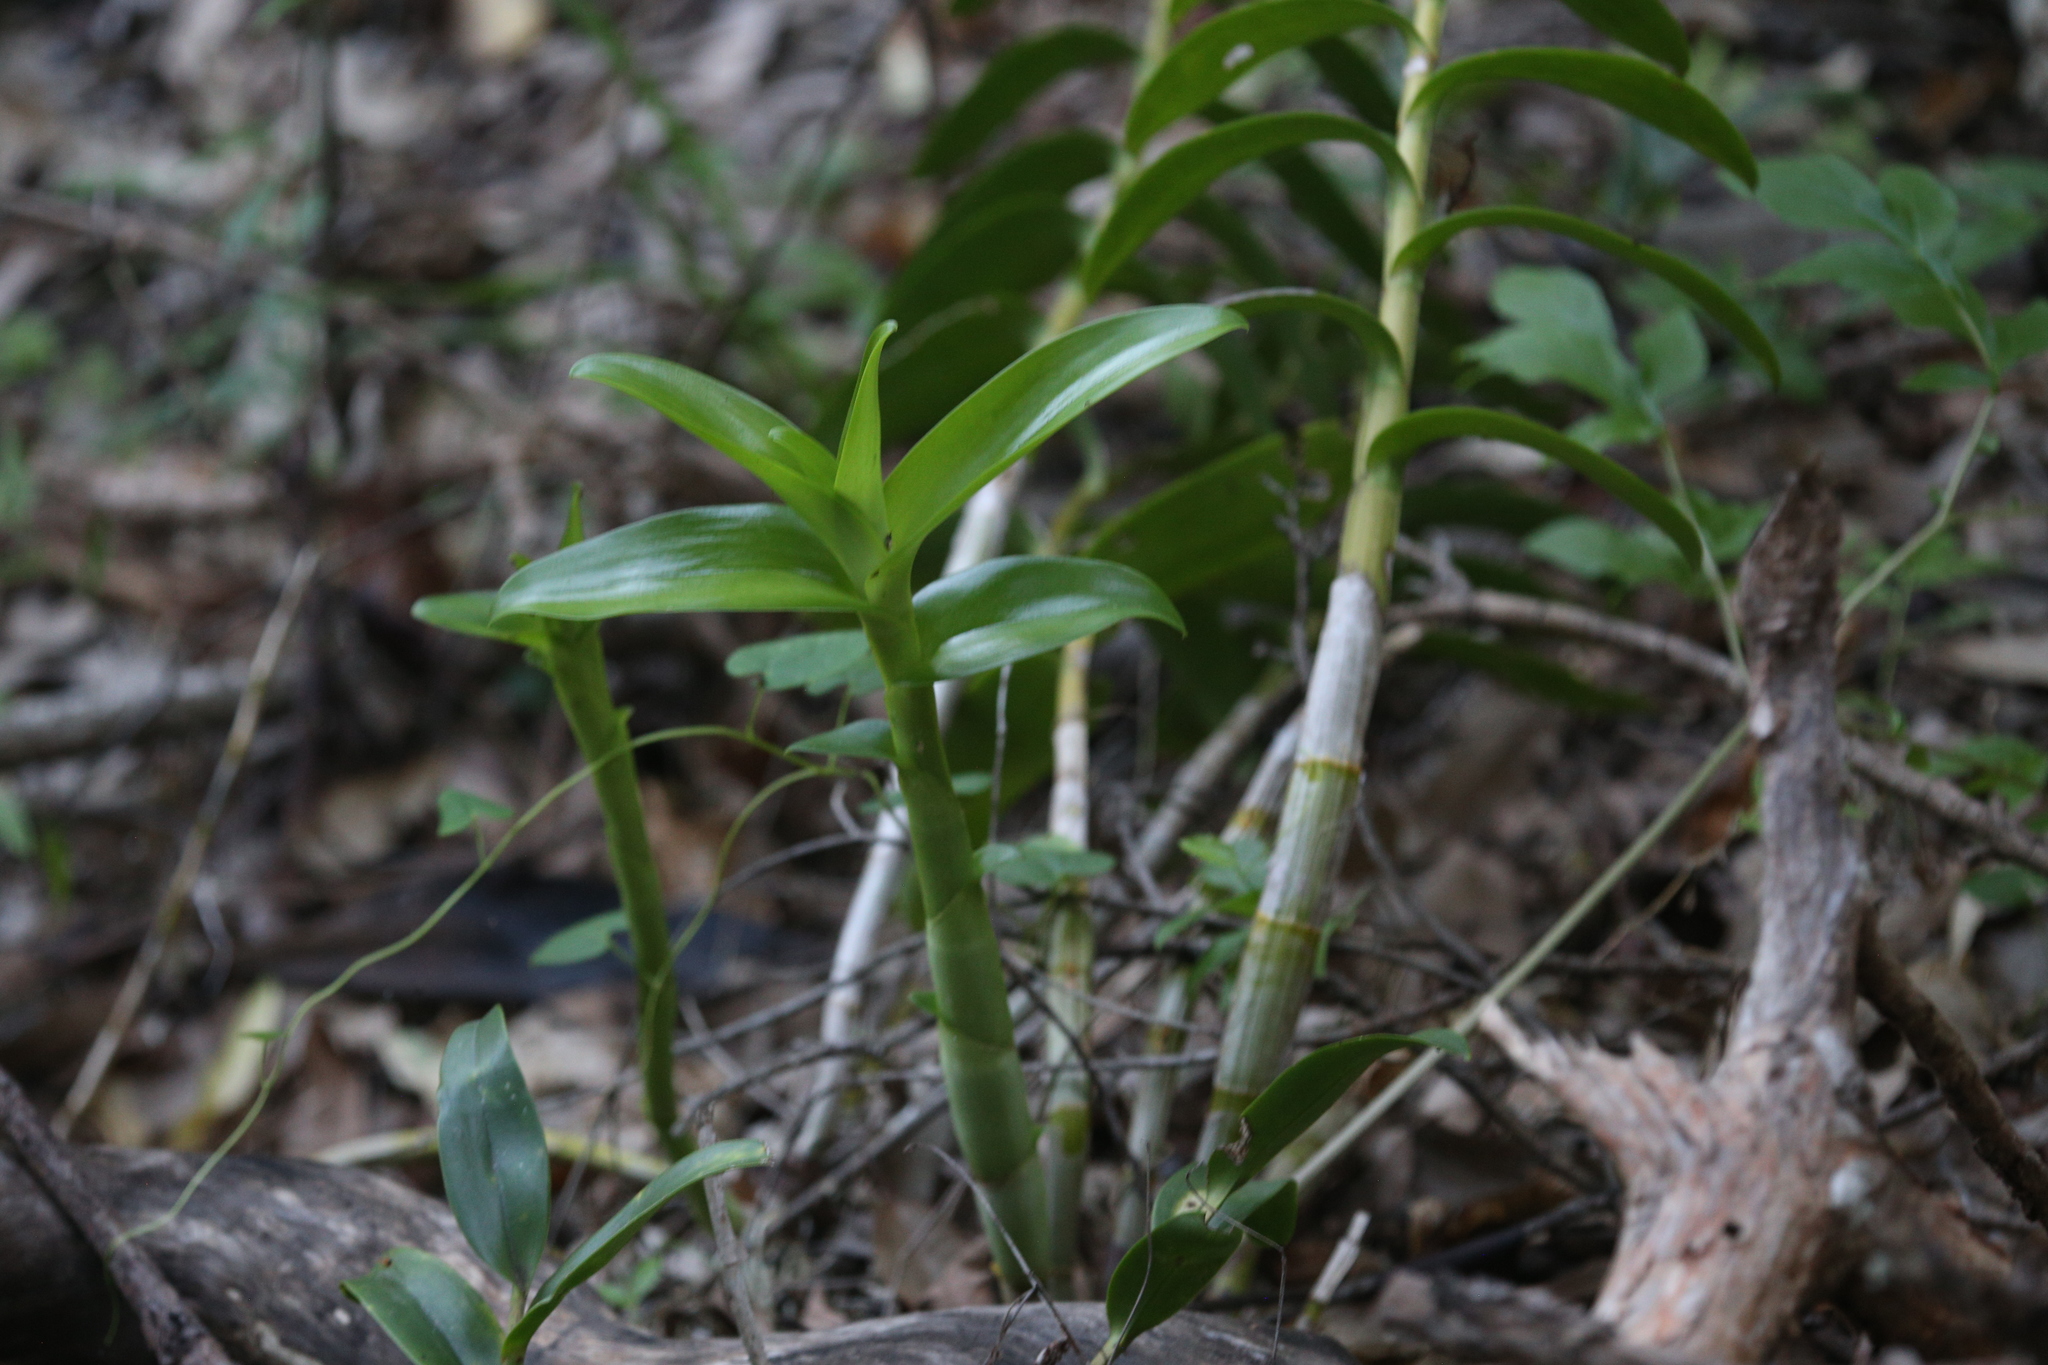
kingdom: Plantae
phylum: Tracheophyta
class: Liliopsida
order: Asparagales
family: Orchidaceae
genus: Dendrobium
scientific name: Dendrobium discolor
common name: Golden antler orchid
